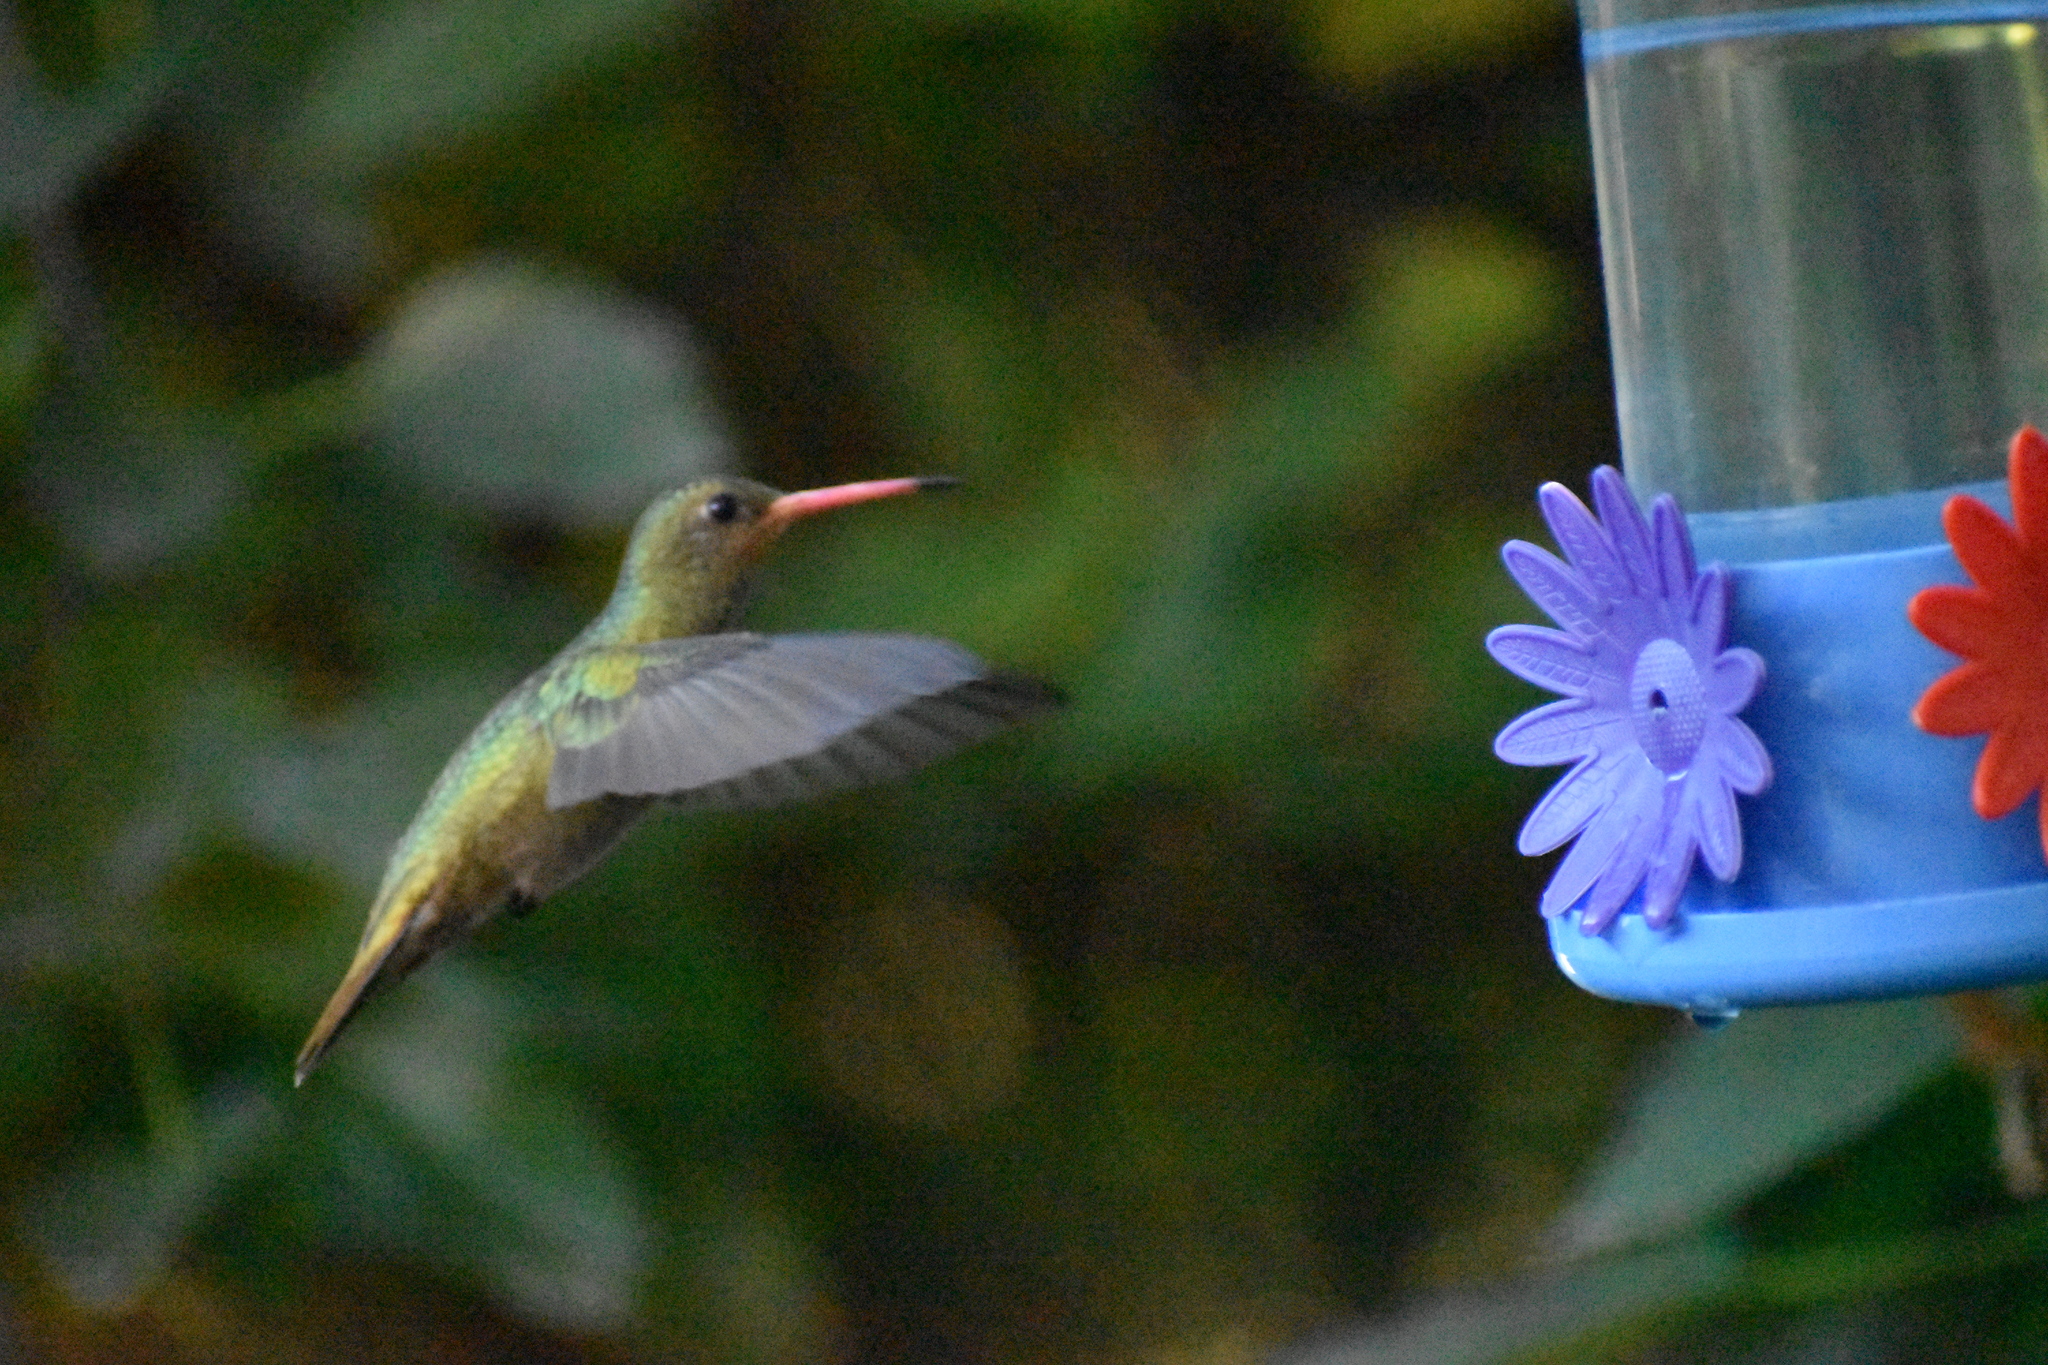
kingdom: Animalia
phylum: Chordata
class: Aves
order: Apodiformes
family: Trochilidae
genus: Hylocharis
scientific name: Hylocharis chrysura
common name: Gilded sapphire
